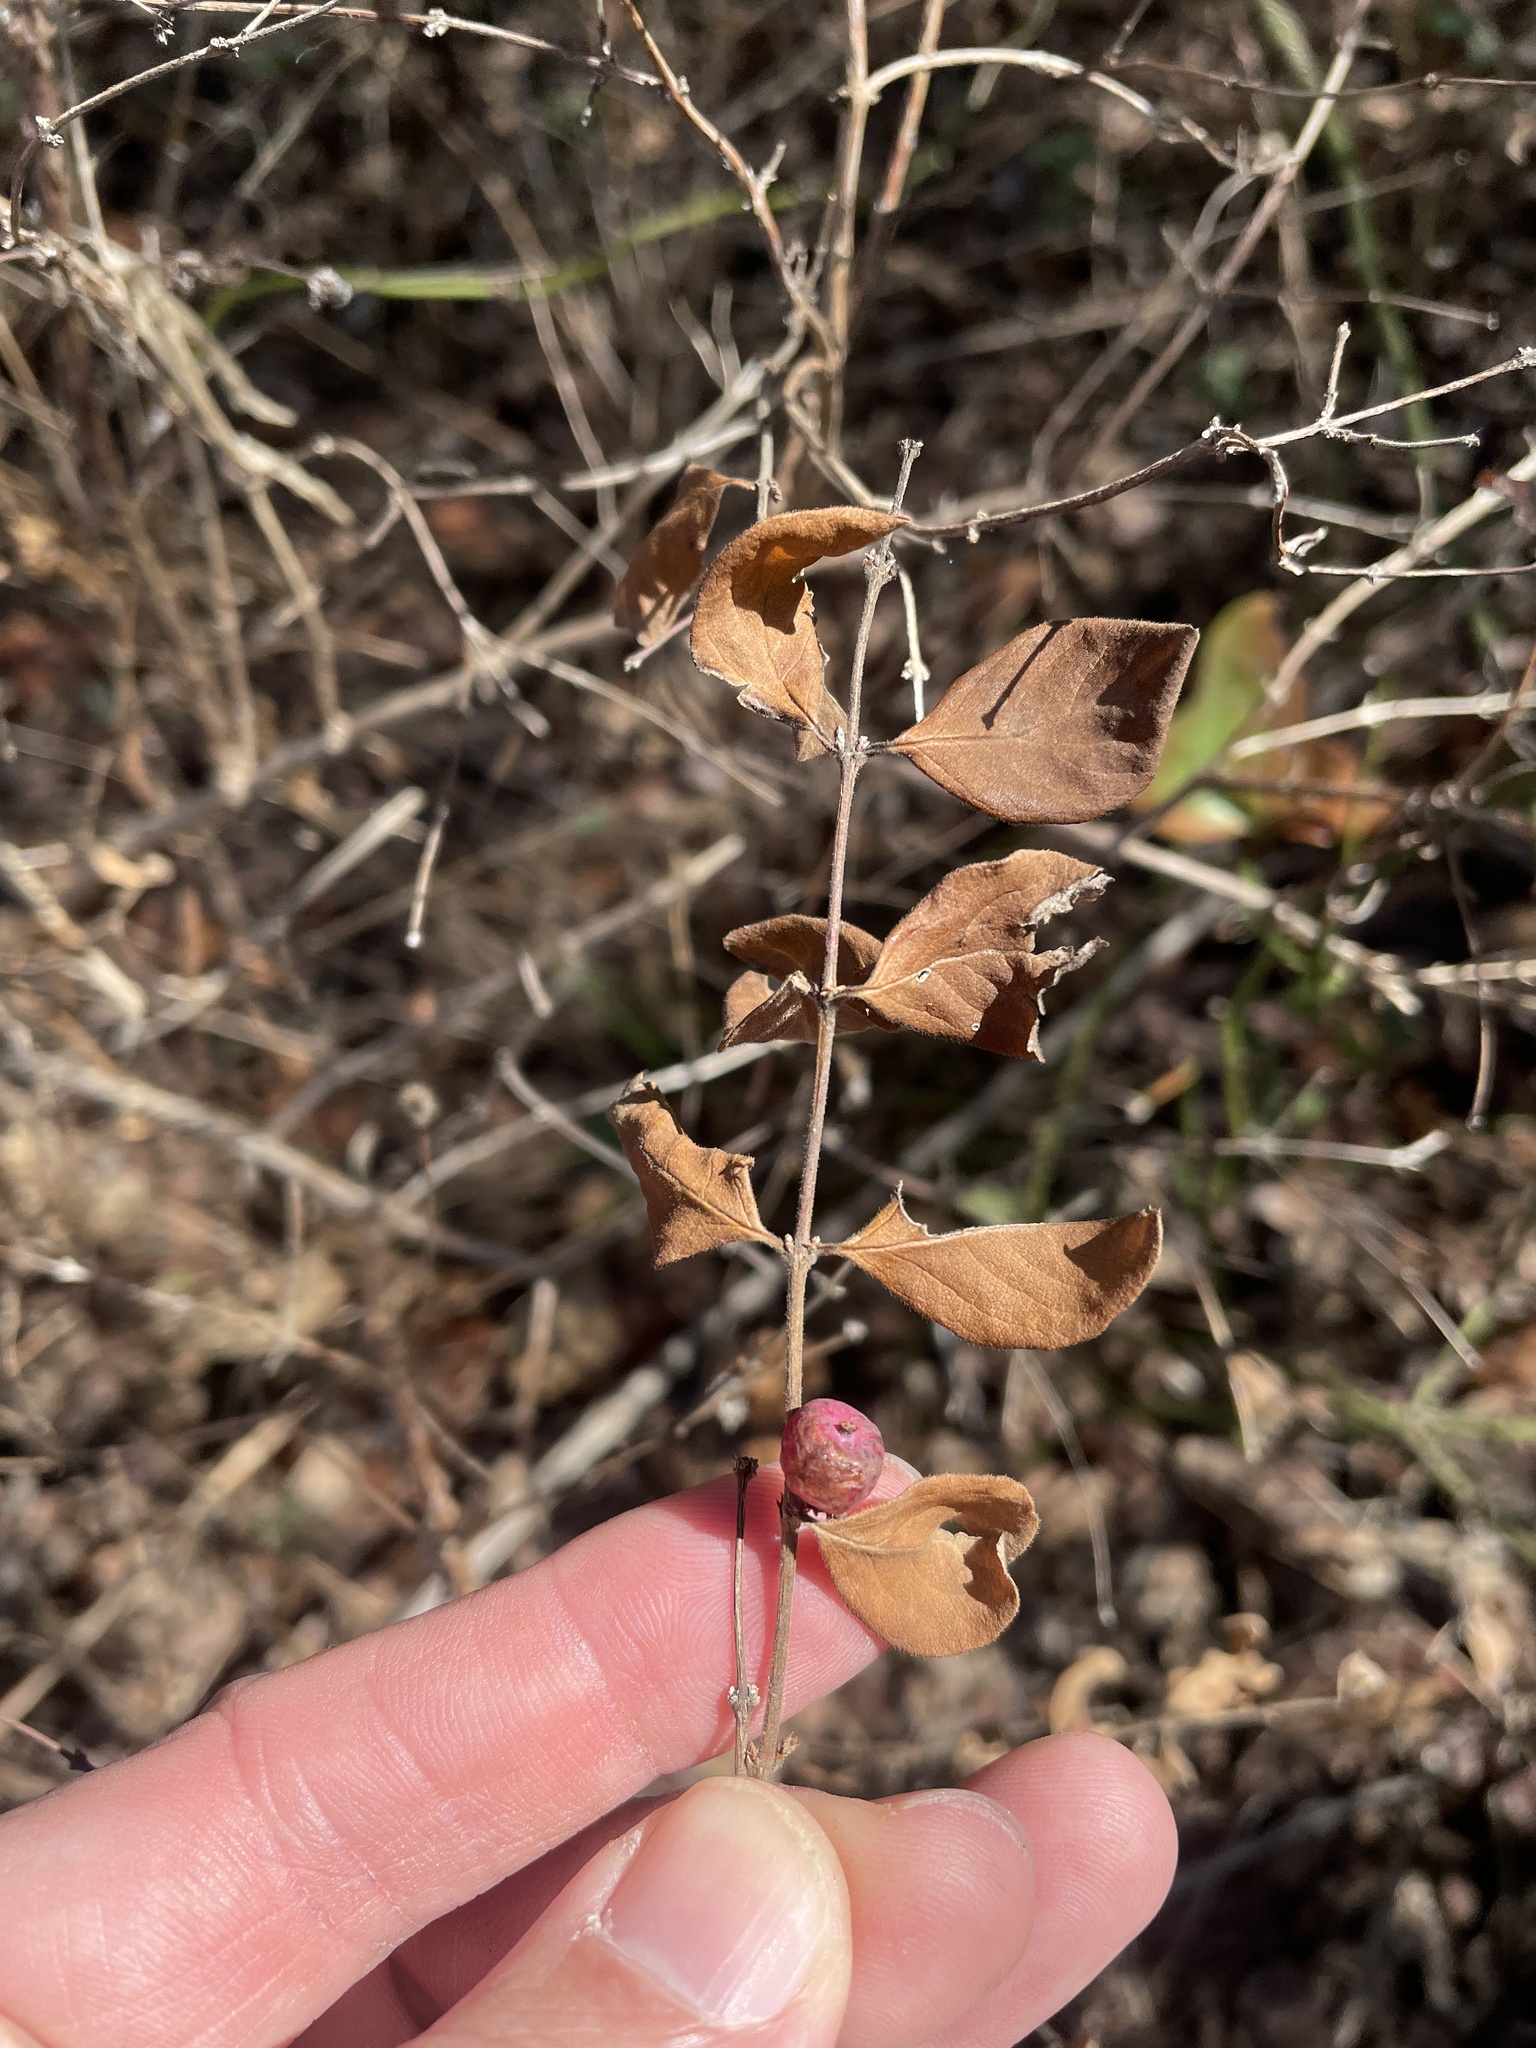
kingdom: Plantae
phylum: Tracheophyta
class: Magnoliopsida
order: Dipsacales
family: Caprifoliaceae
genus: Symphoricarpos
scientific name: Symphoricarpos orbiculatus
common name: Coralberry
